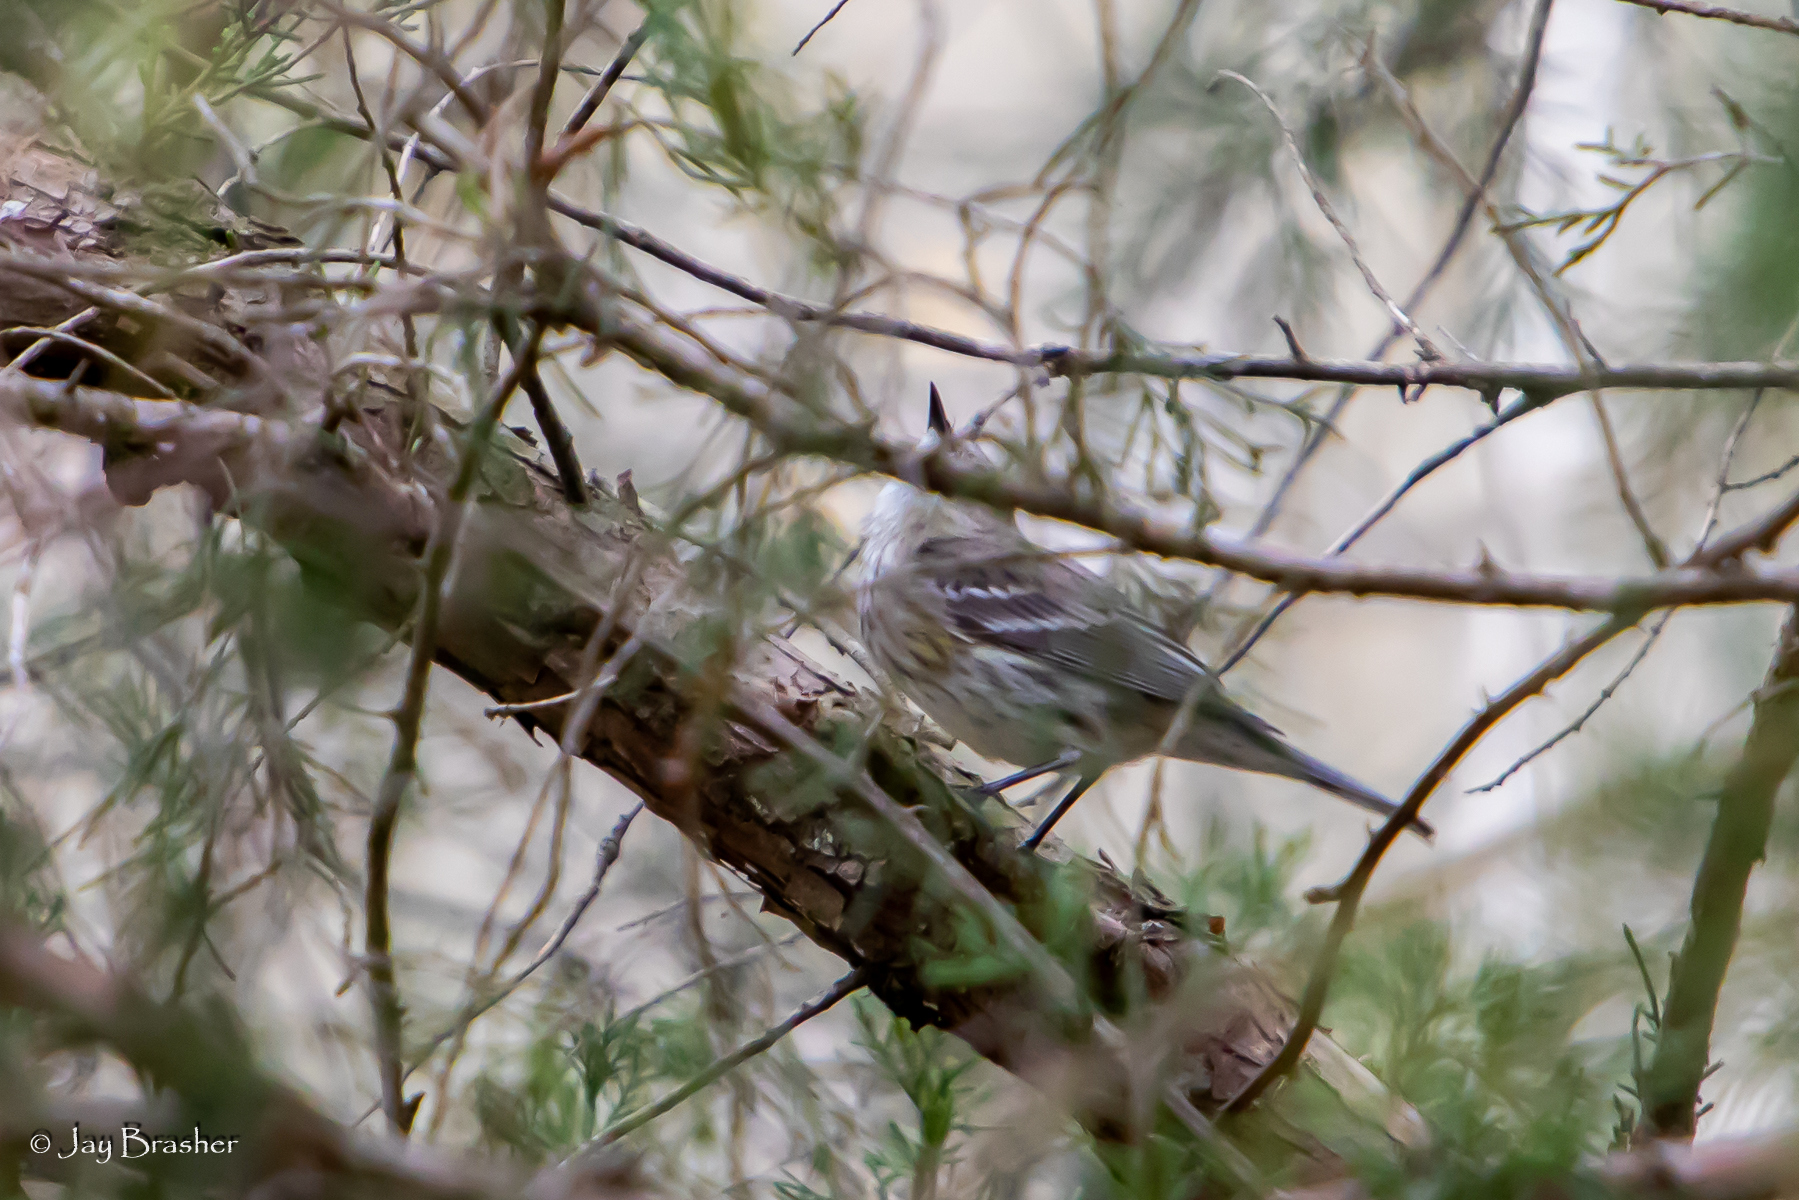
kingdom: Animalia
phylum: Chordata
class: Aves
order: Passeriformes
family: Parulidae
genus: Setophaga
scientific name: Setophaga coronata
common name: Myrtle warbler
